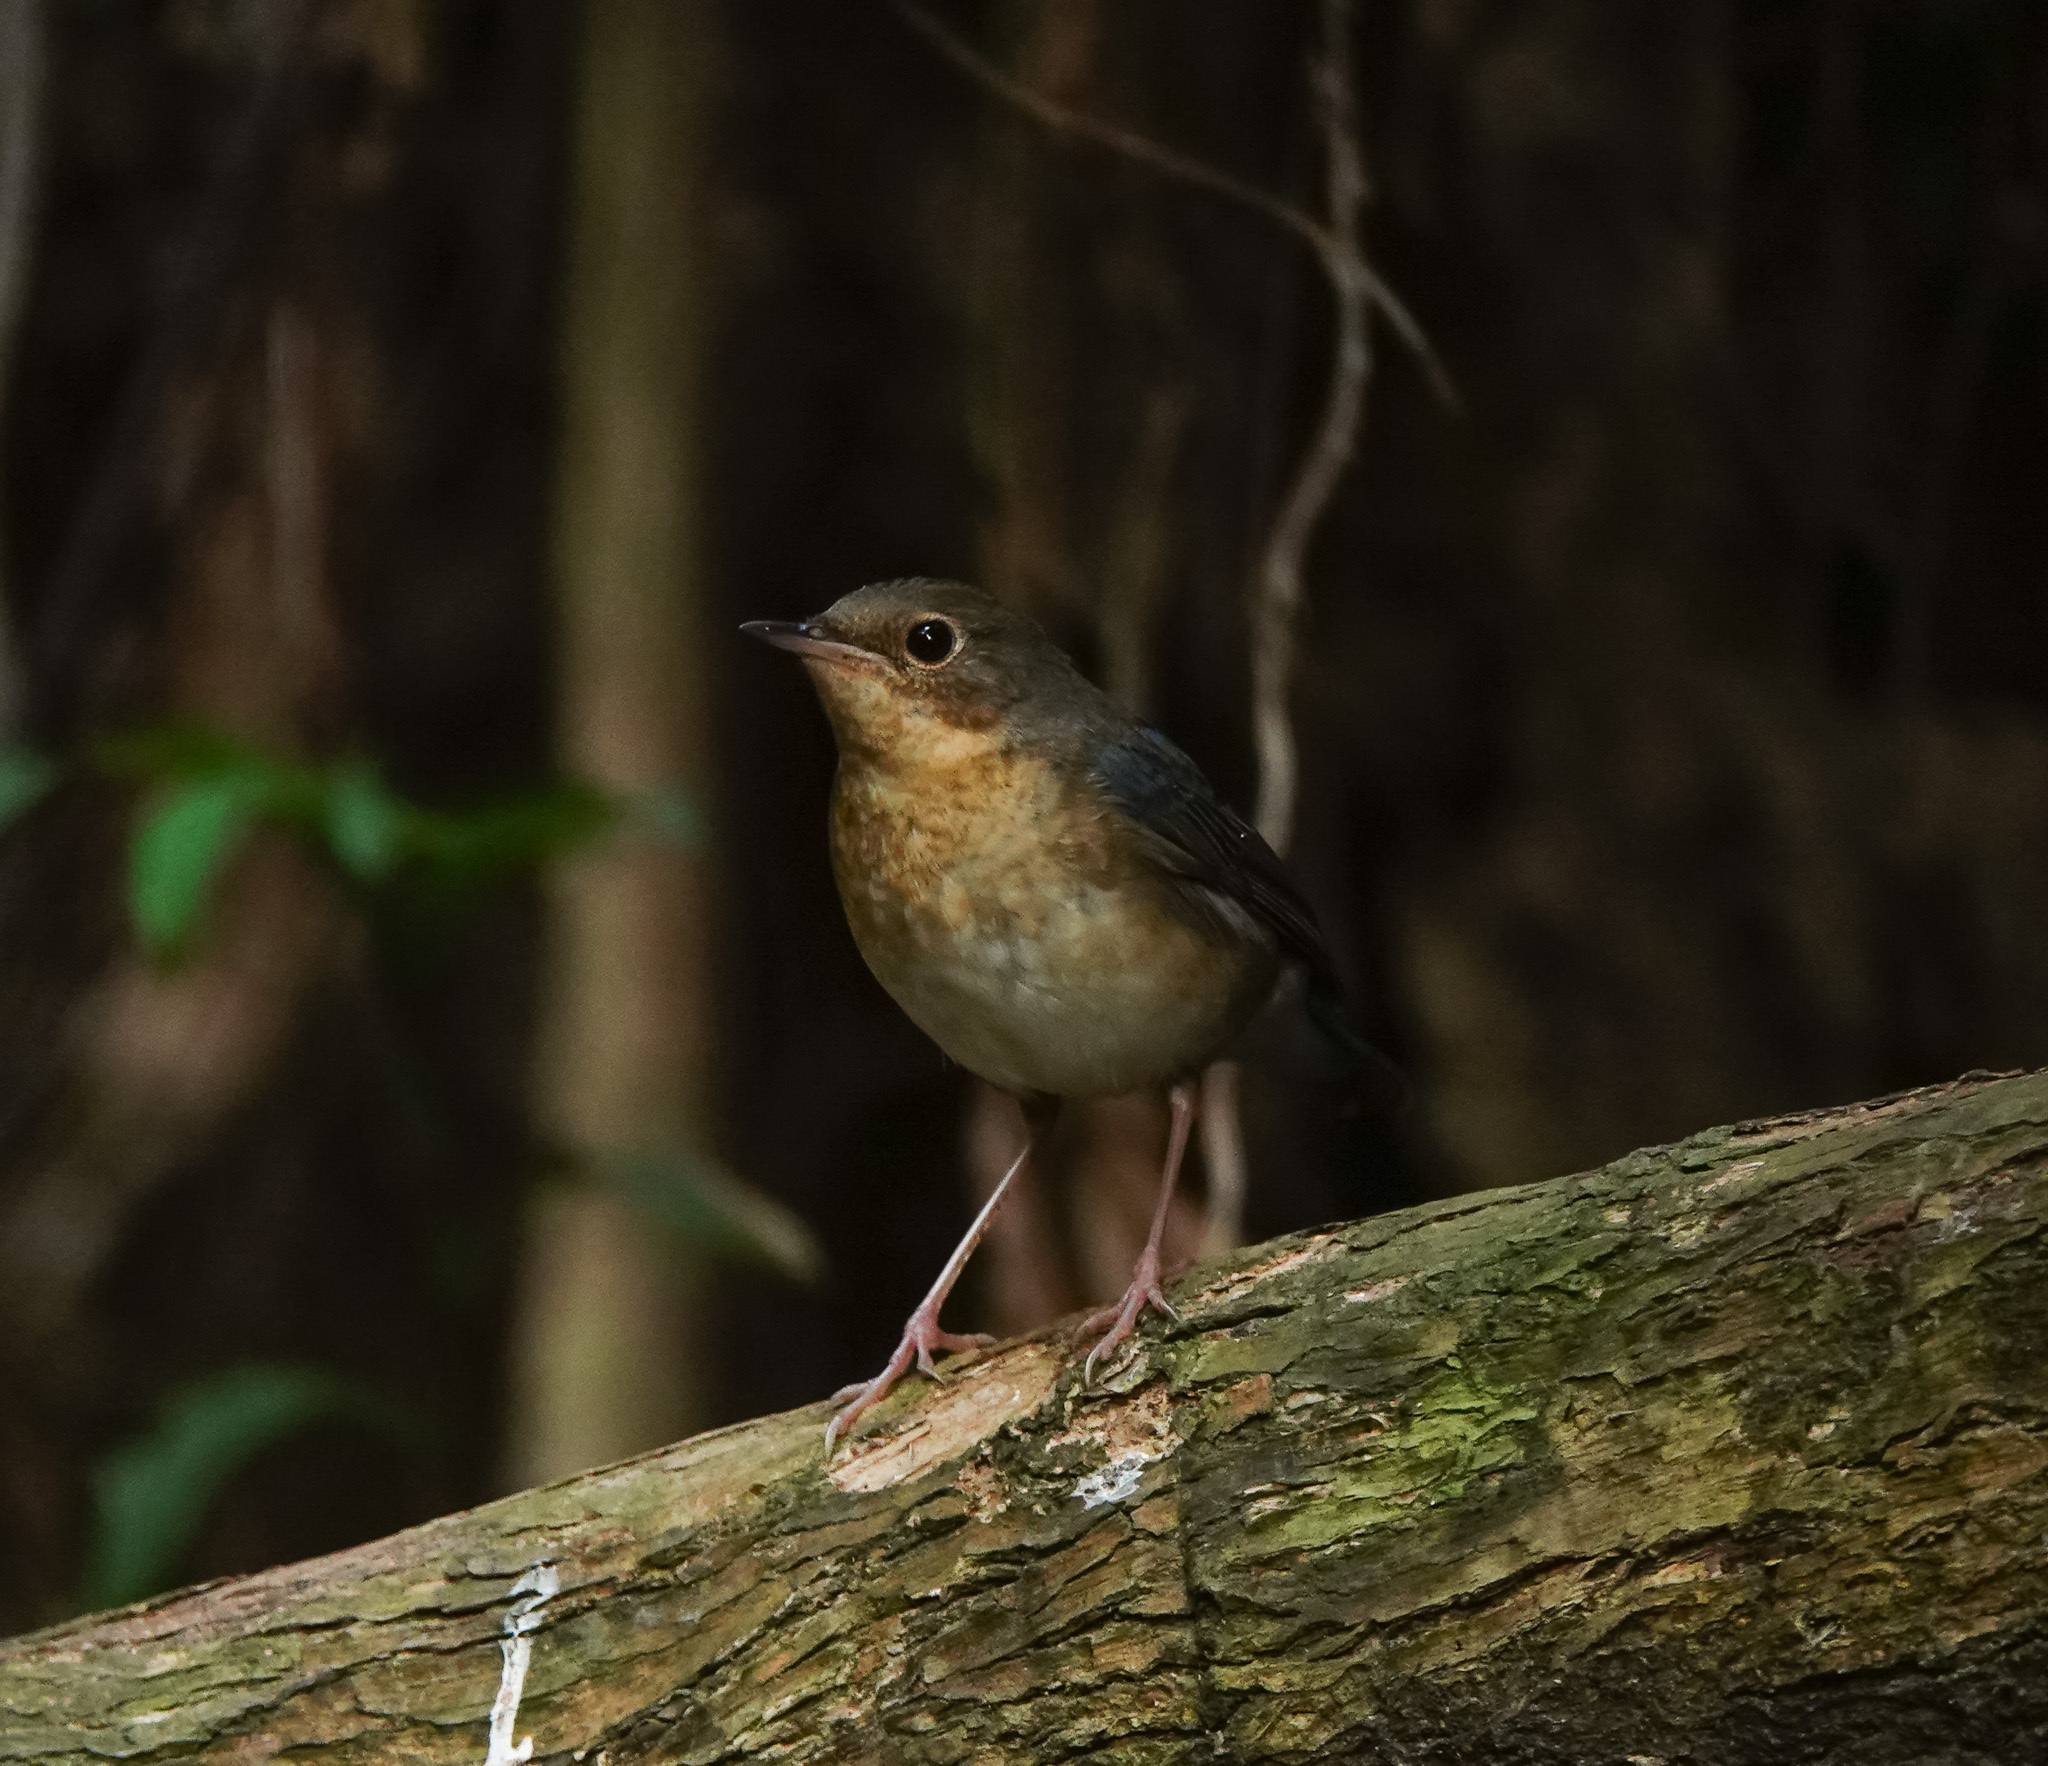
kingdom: Animalia
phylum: Chordata
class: Aves
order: Passeriformes
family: Muscicapidae
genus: Luscinia
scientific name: Luscinia cyane
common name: Siberian blue robin
